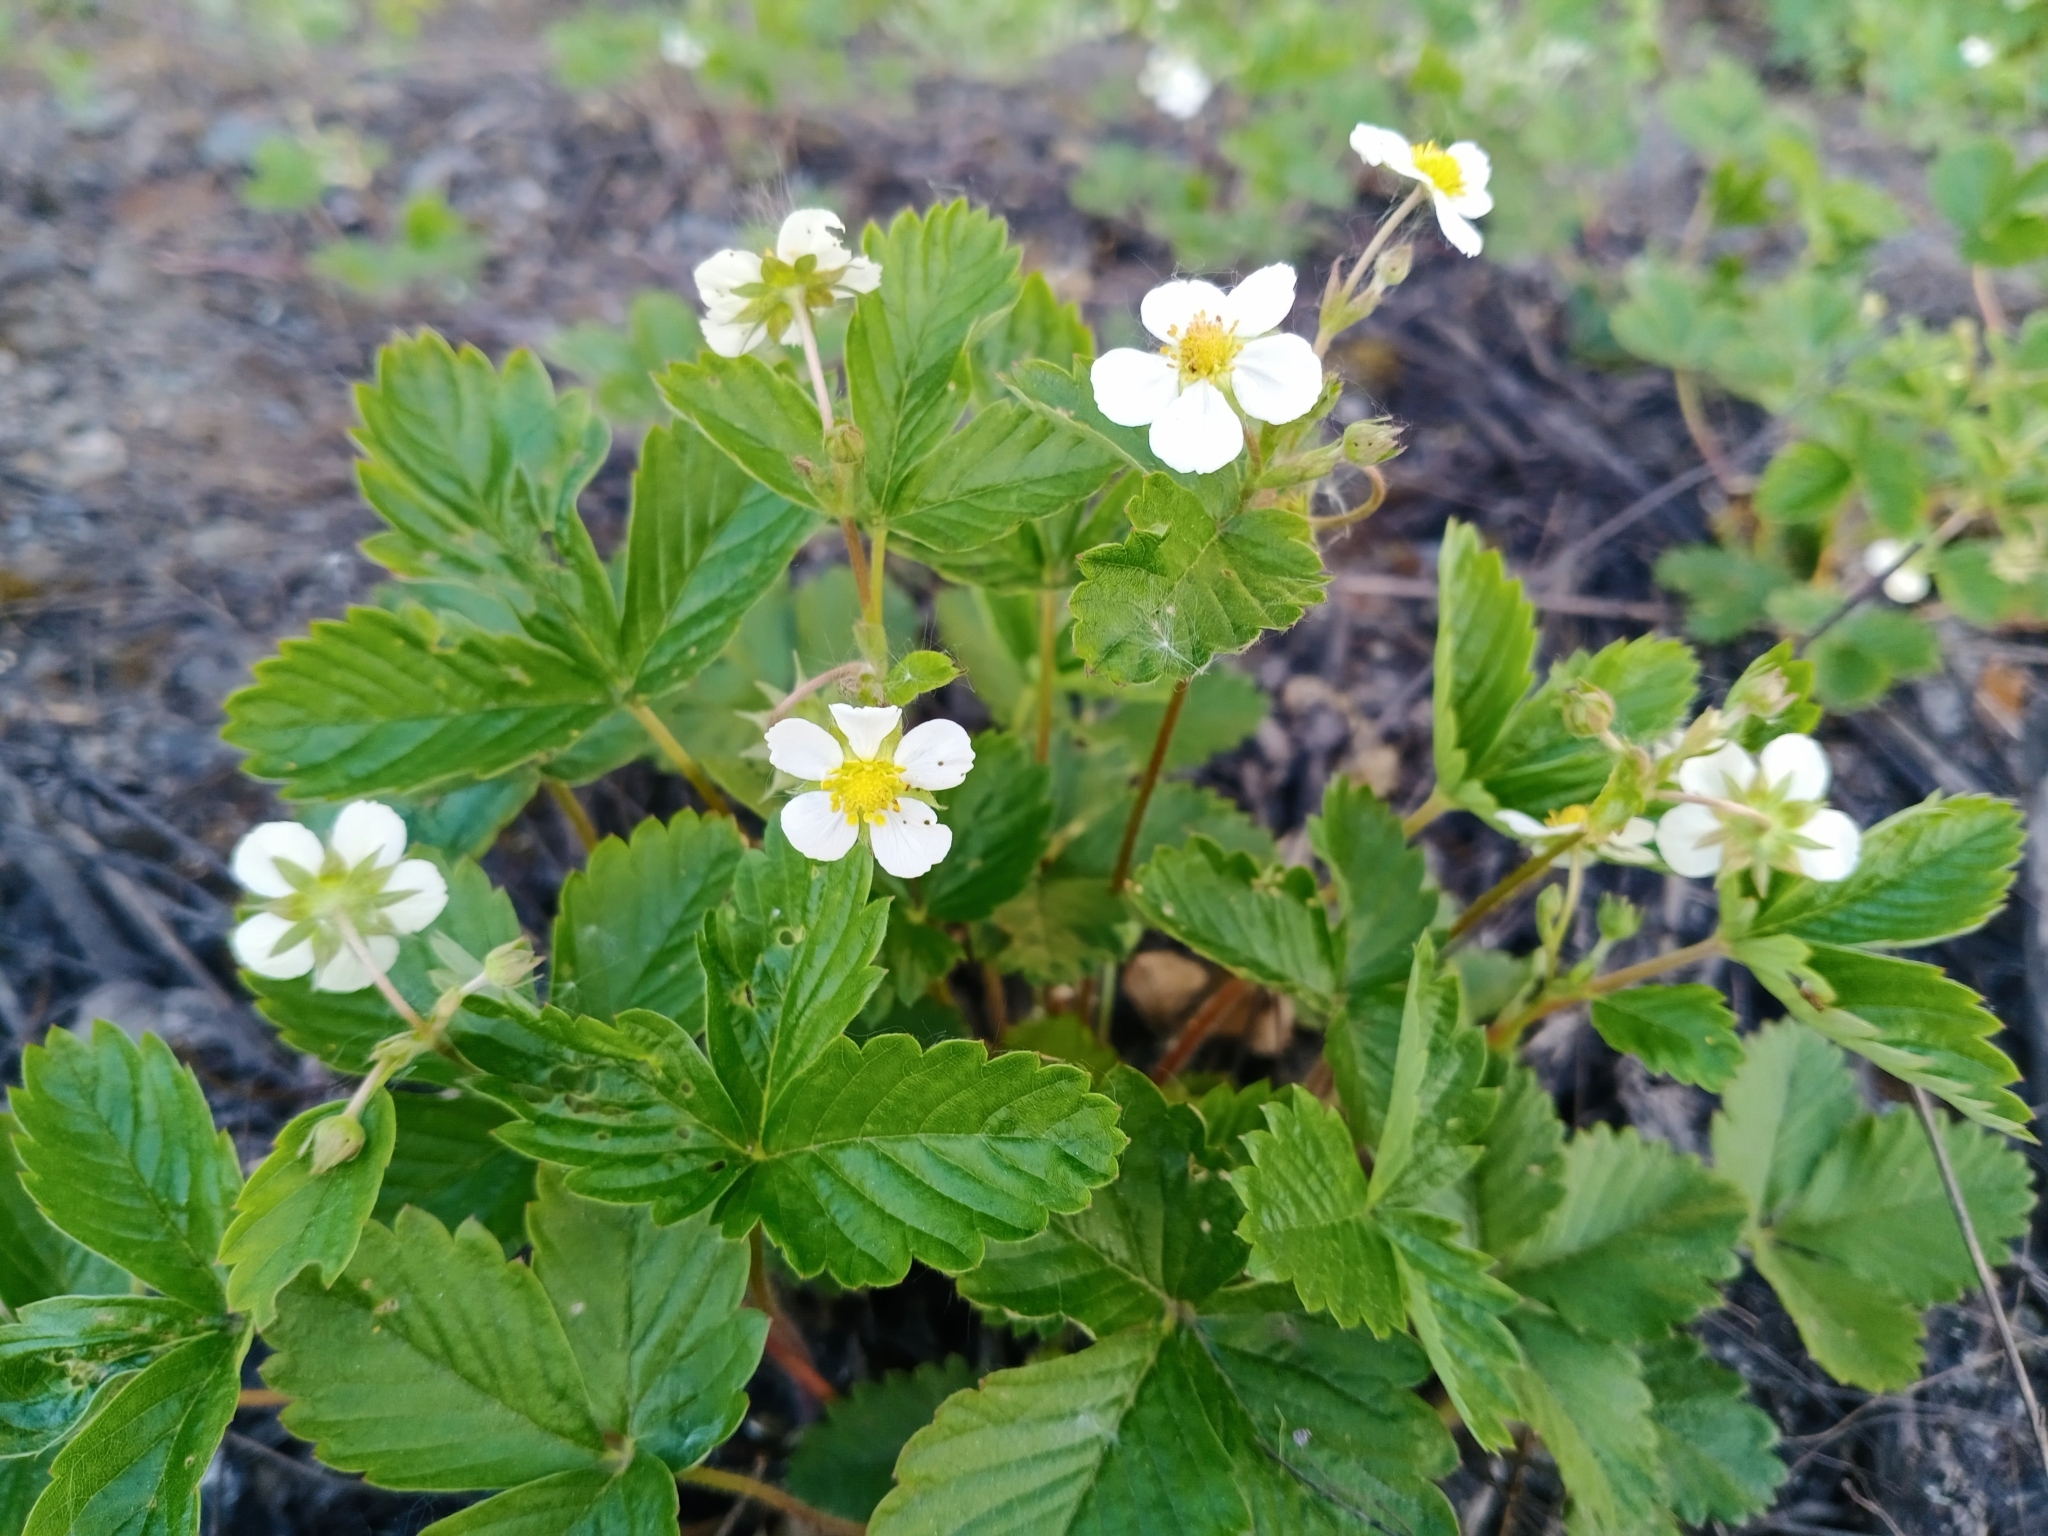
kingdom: Plantae
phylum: Tracheophyta
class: Magnoliopsida
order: Rosales
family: Rosaceae
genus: Fragaria
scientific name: Fragaria vesca
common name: Wild strawberry
